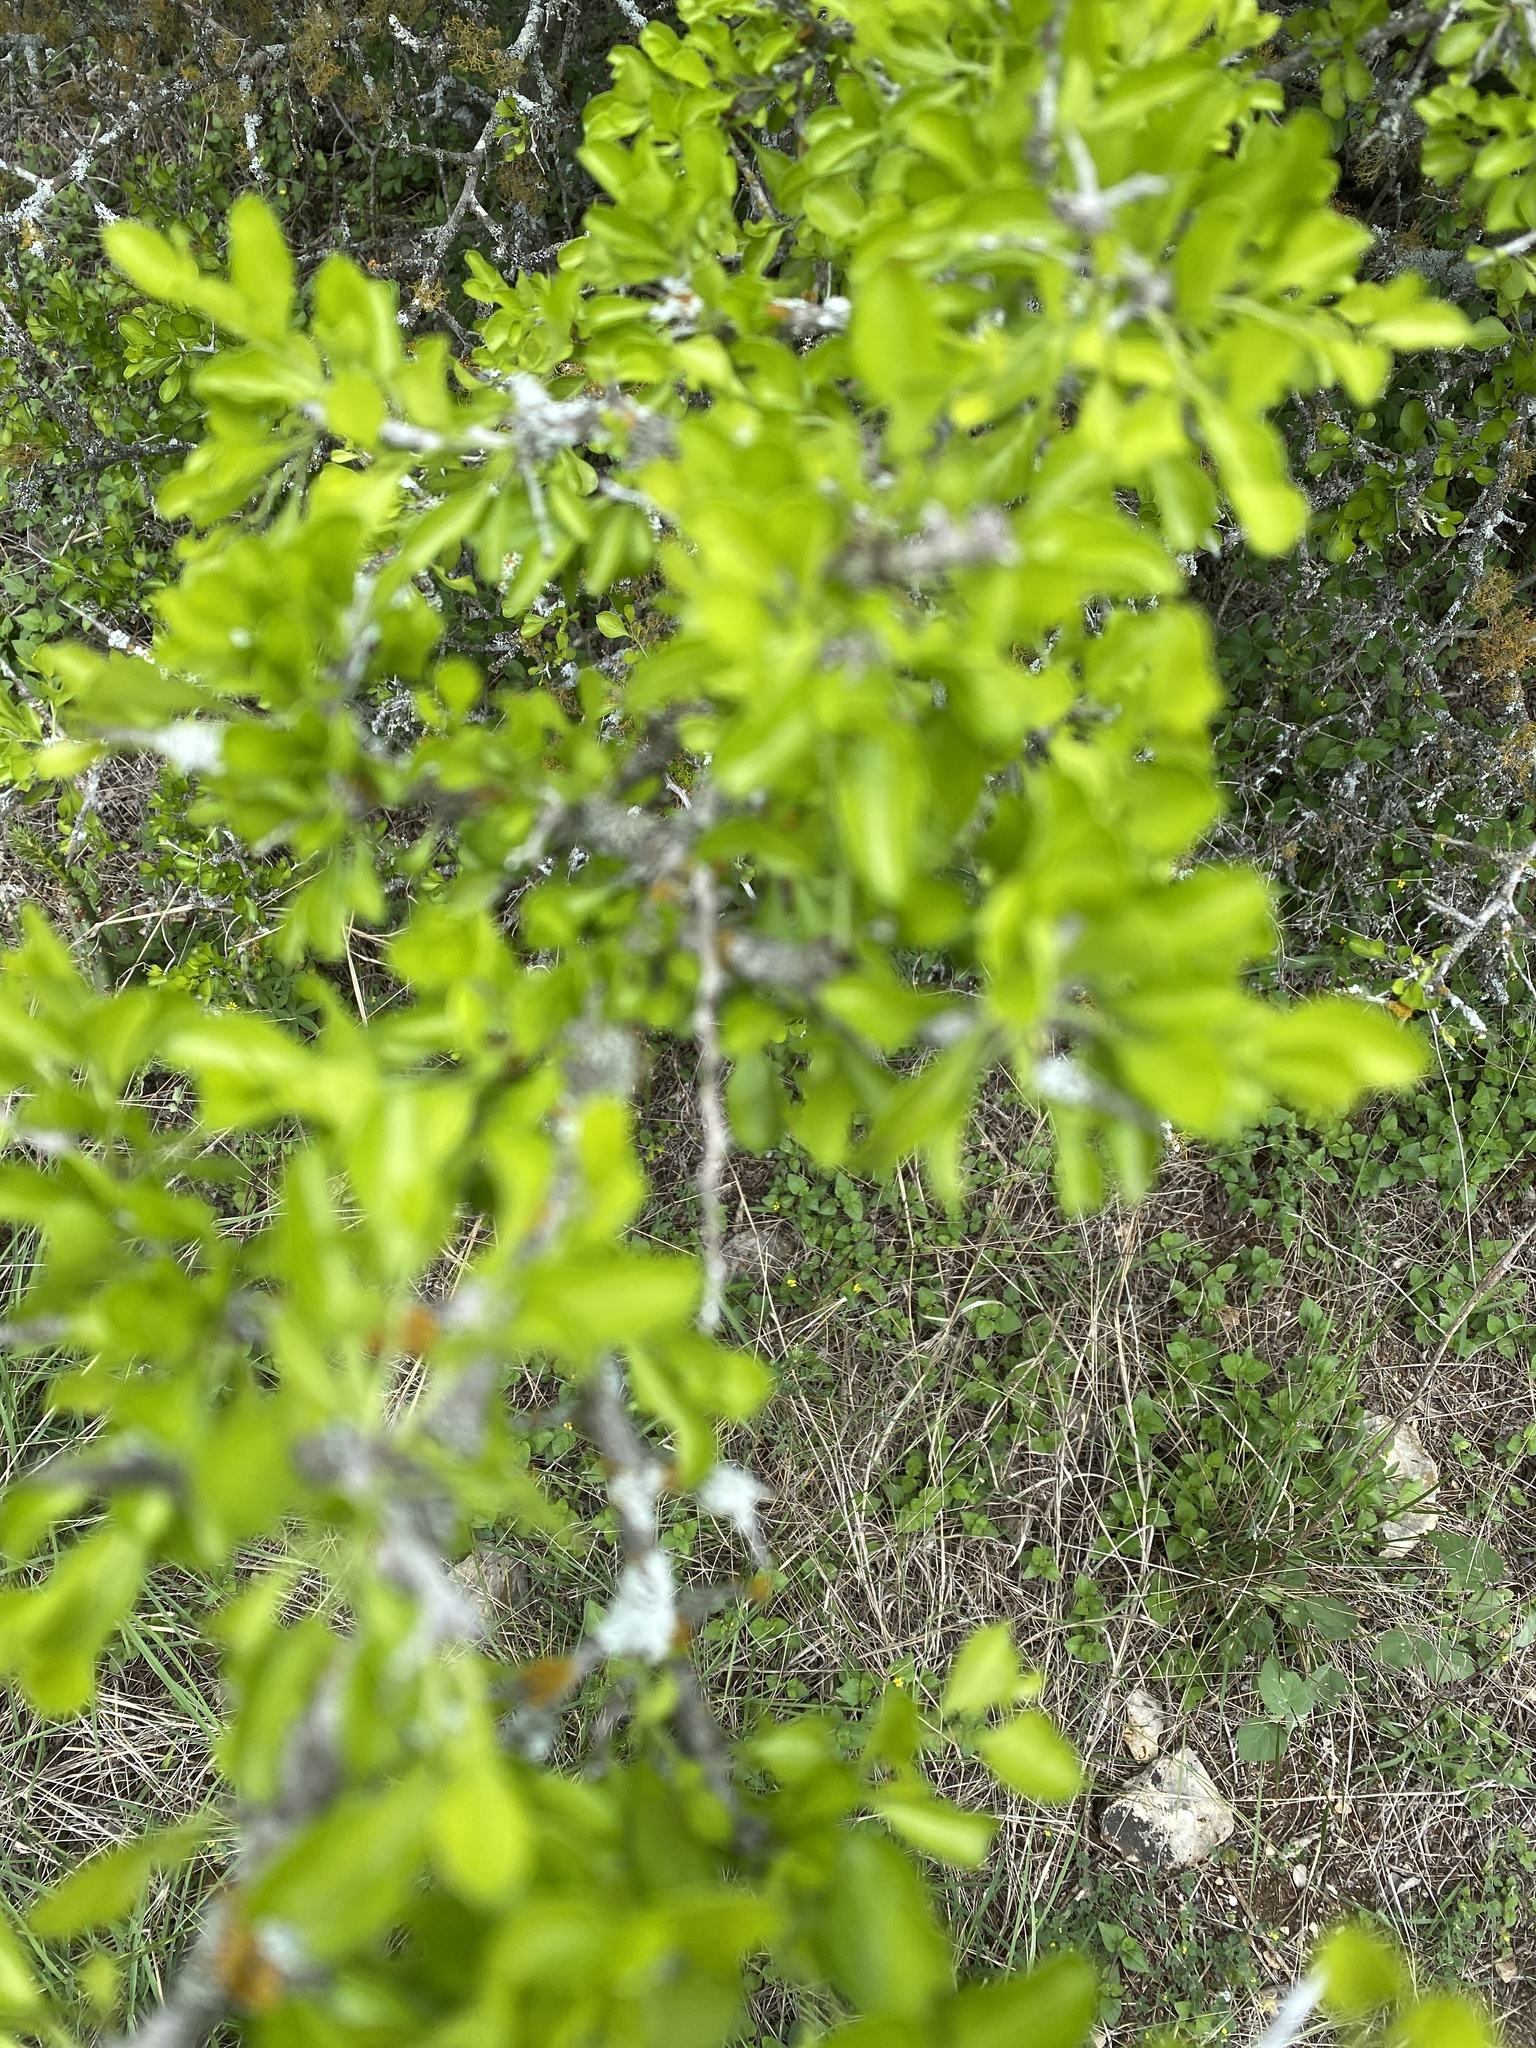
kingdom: Plantae
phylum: Tracheophyta
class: Magnoliopsida
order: Rosales
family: Rhamnaceae
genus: Condalia
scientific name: Condalia hookeri
